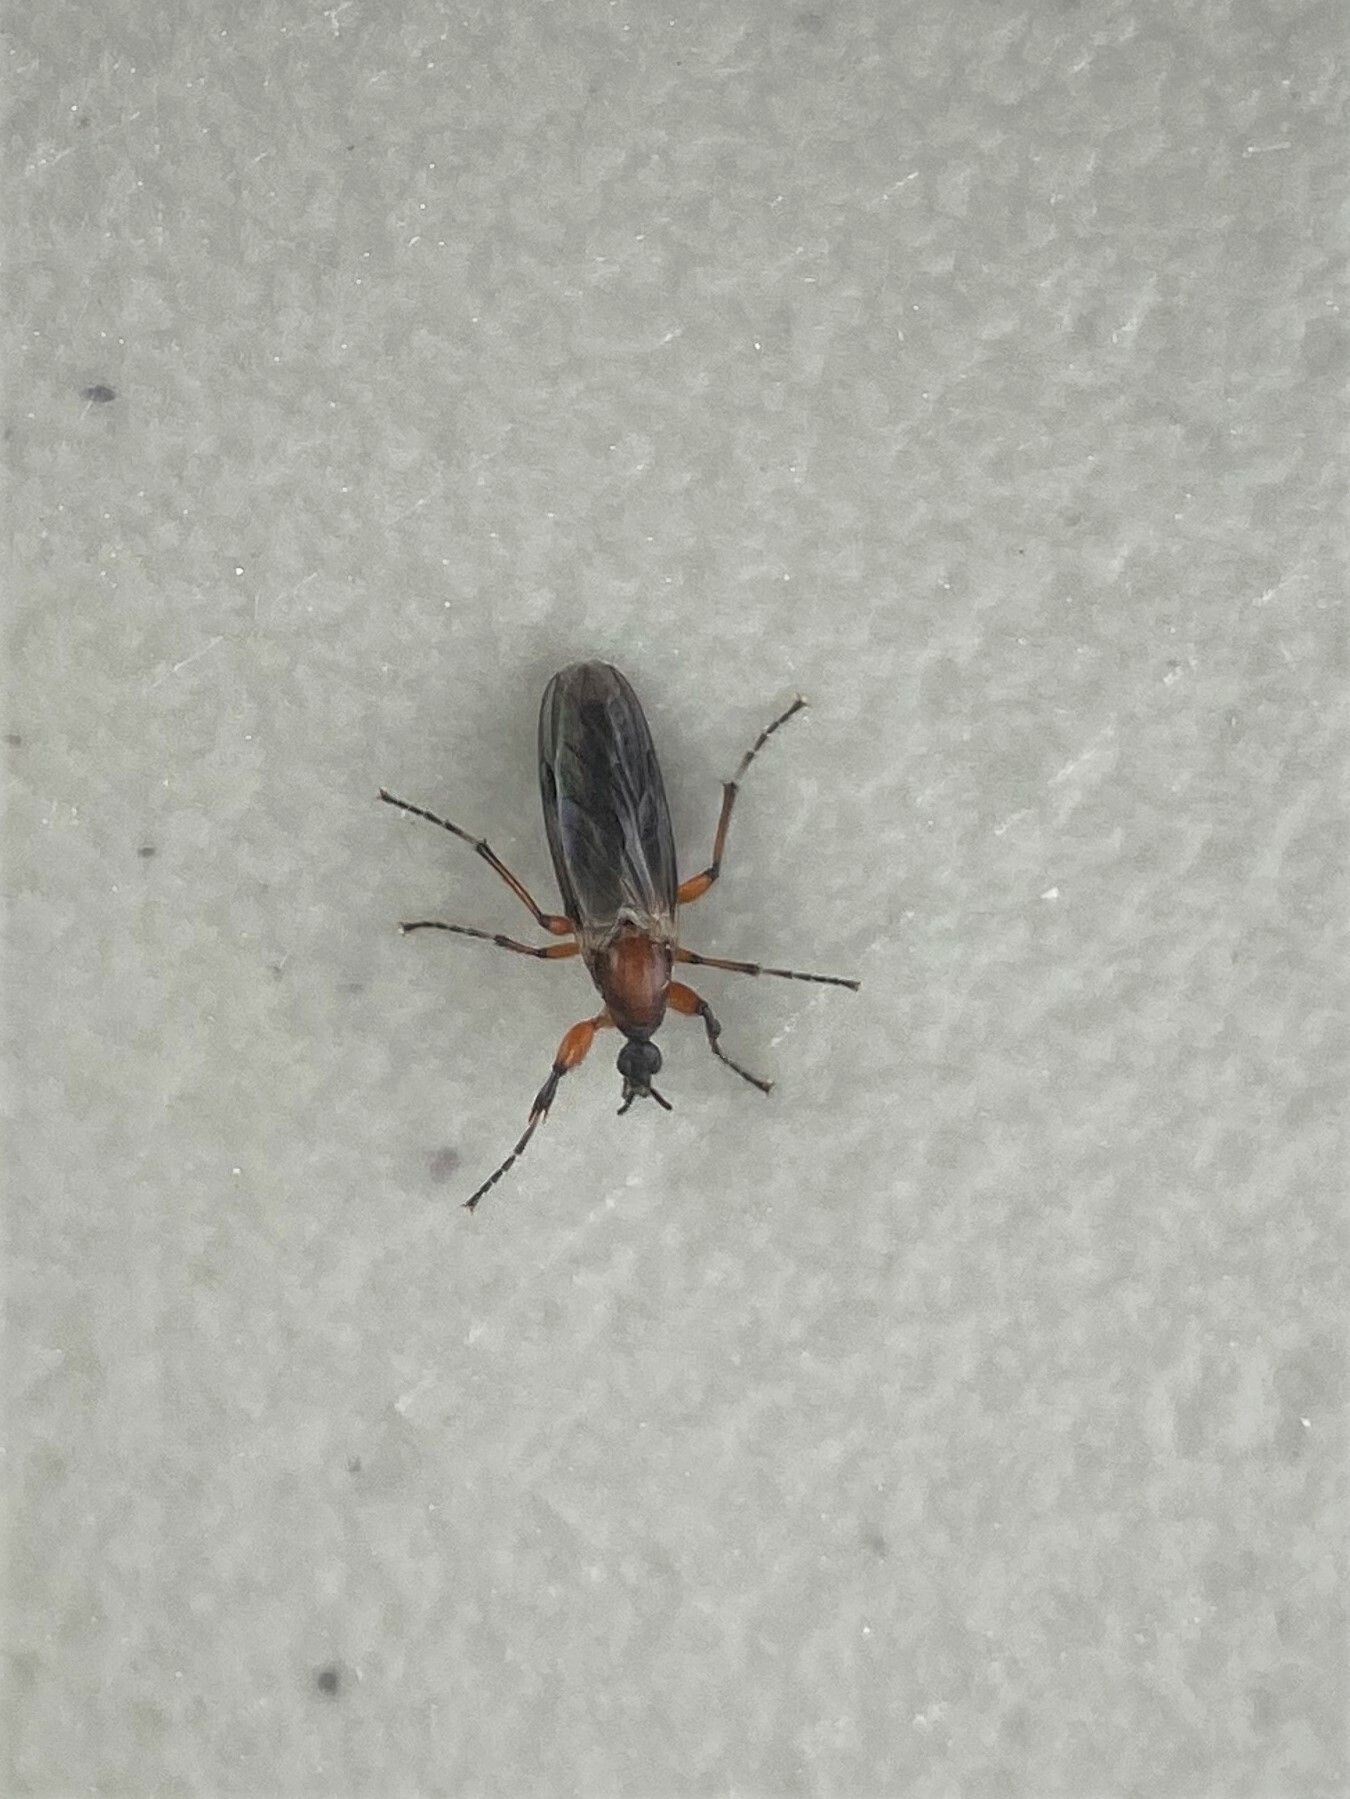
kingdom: Animalia
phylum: Arthropoda
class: Insecta
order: Diptera
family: Bibionidae
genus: Bibio
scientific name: Bibio articulatus
